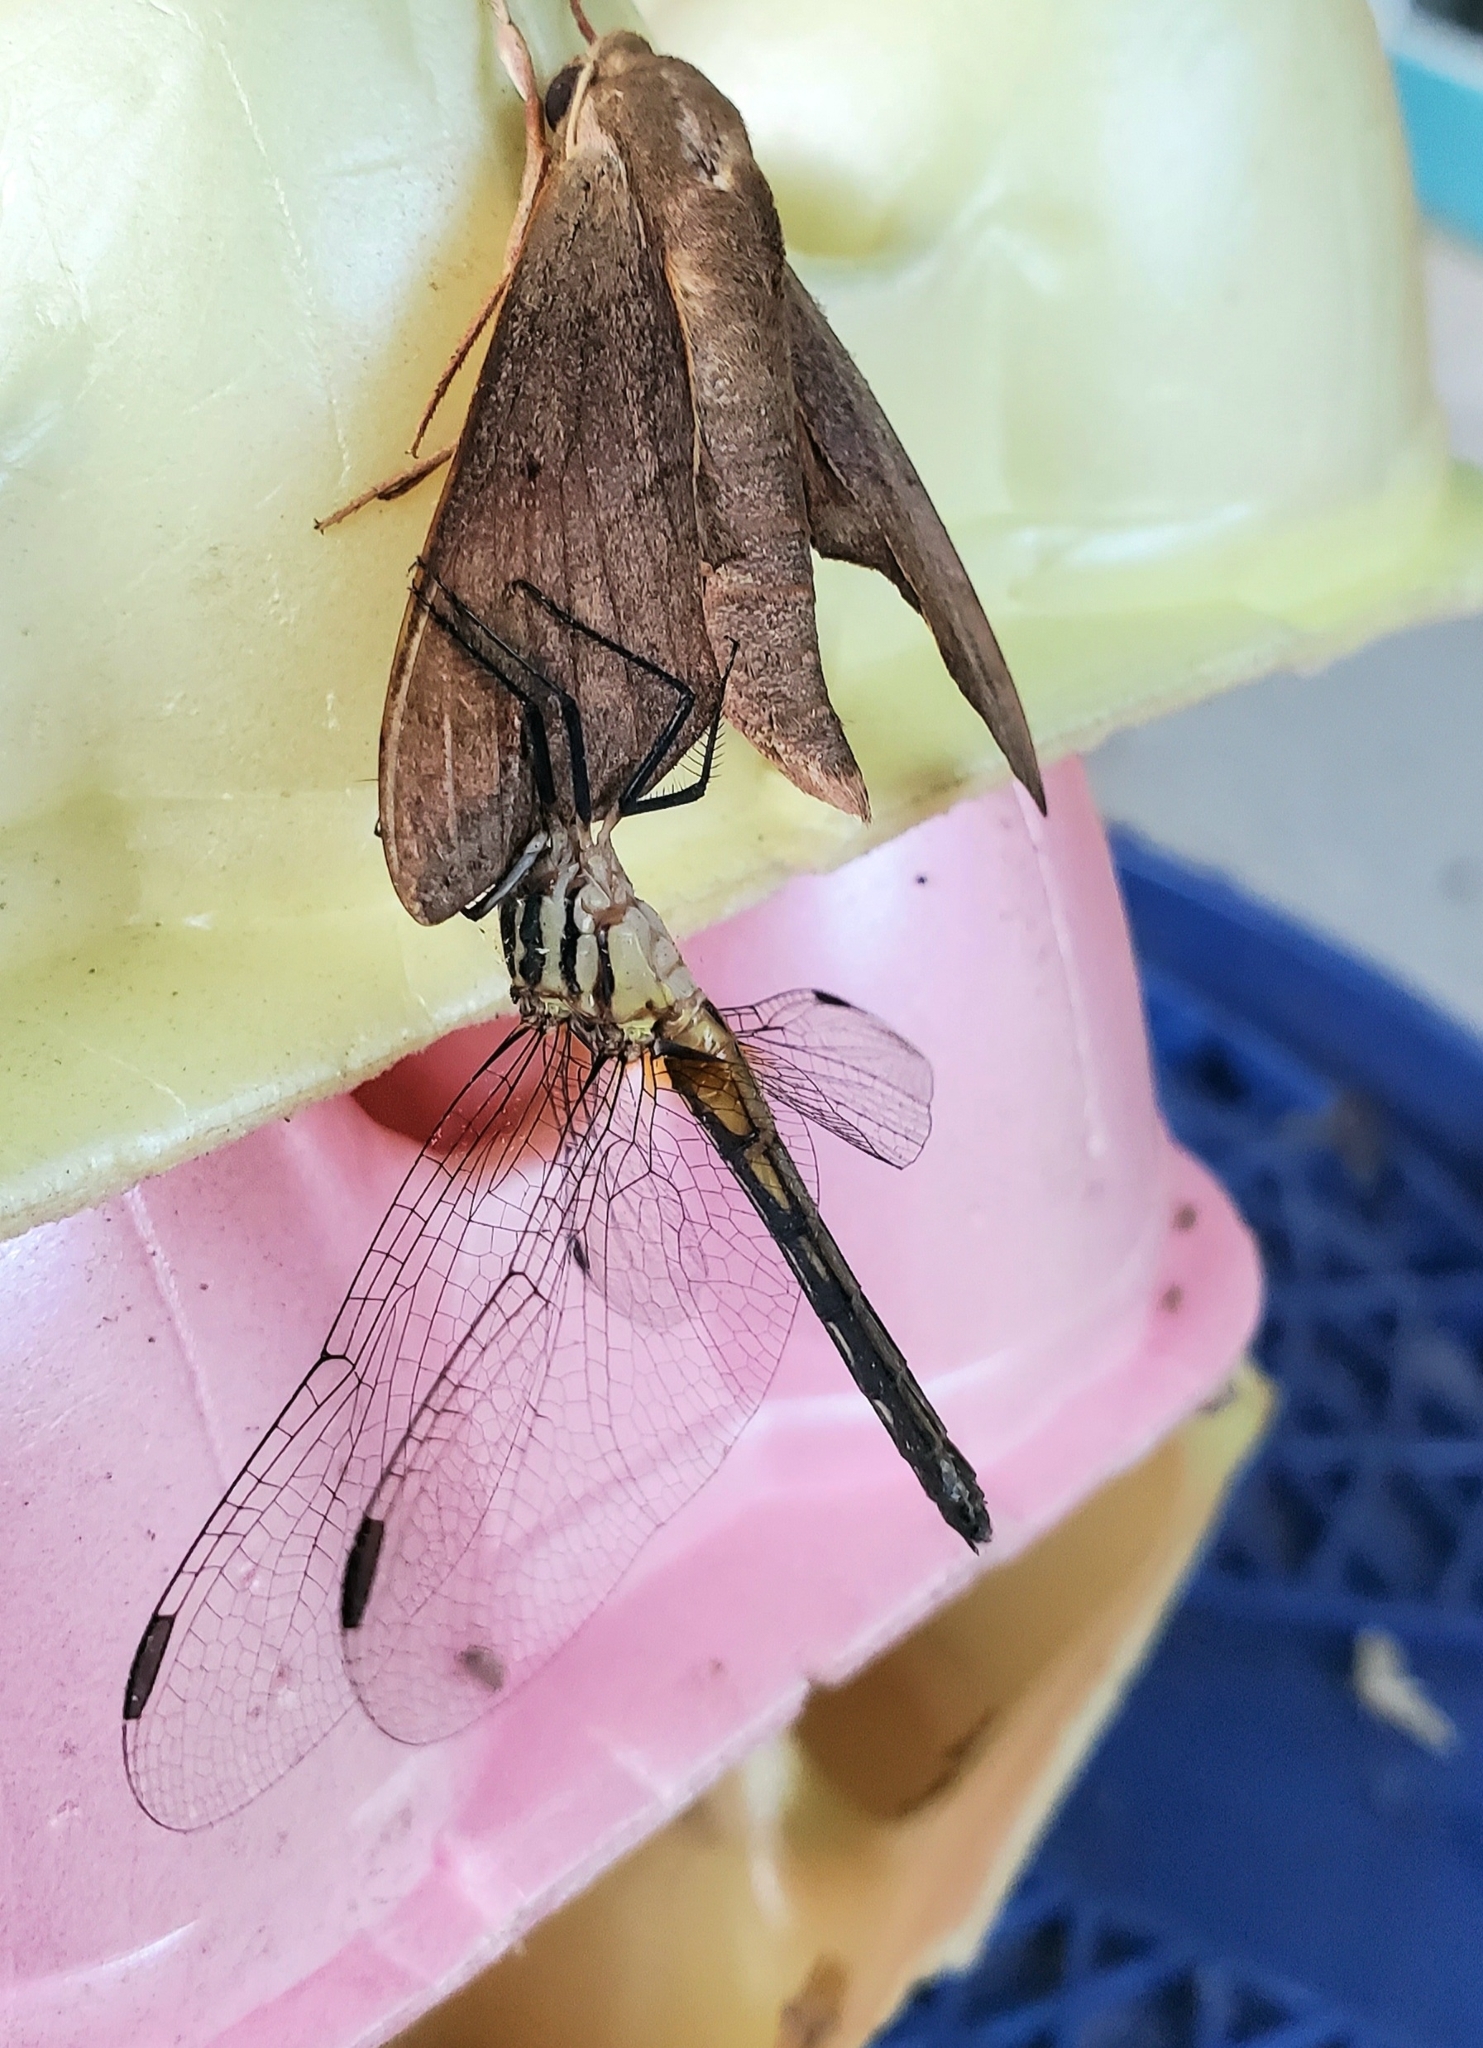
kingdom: Animalia
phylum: Arthropoda
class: Insecta
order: Odonata
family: Libellulidae
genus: Pachydiplax
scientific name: Pachydiplax longipennis
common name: Blue dasher
